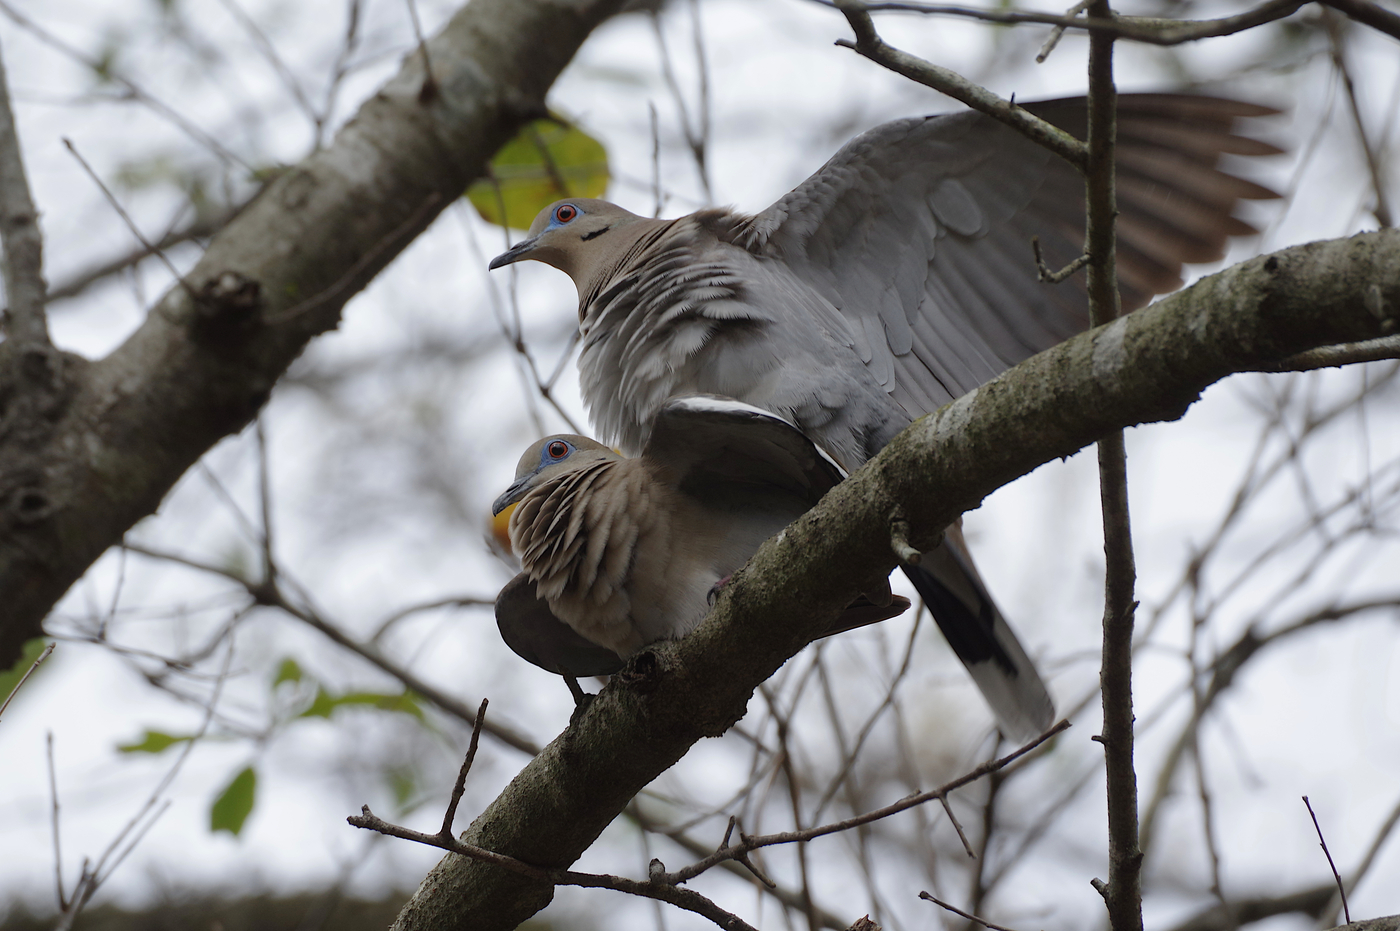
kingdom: Animalia
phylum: Chordata
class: Aves
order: Columbiformes
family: Columbidae
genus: Zenaida
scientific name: Zenaida asiatica
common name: White-winged dove
